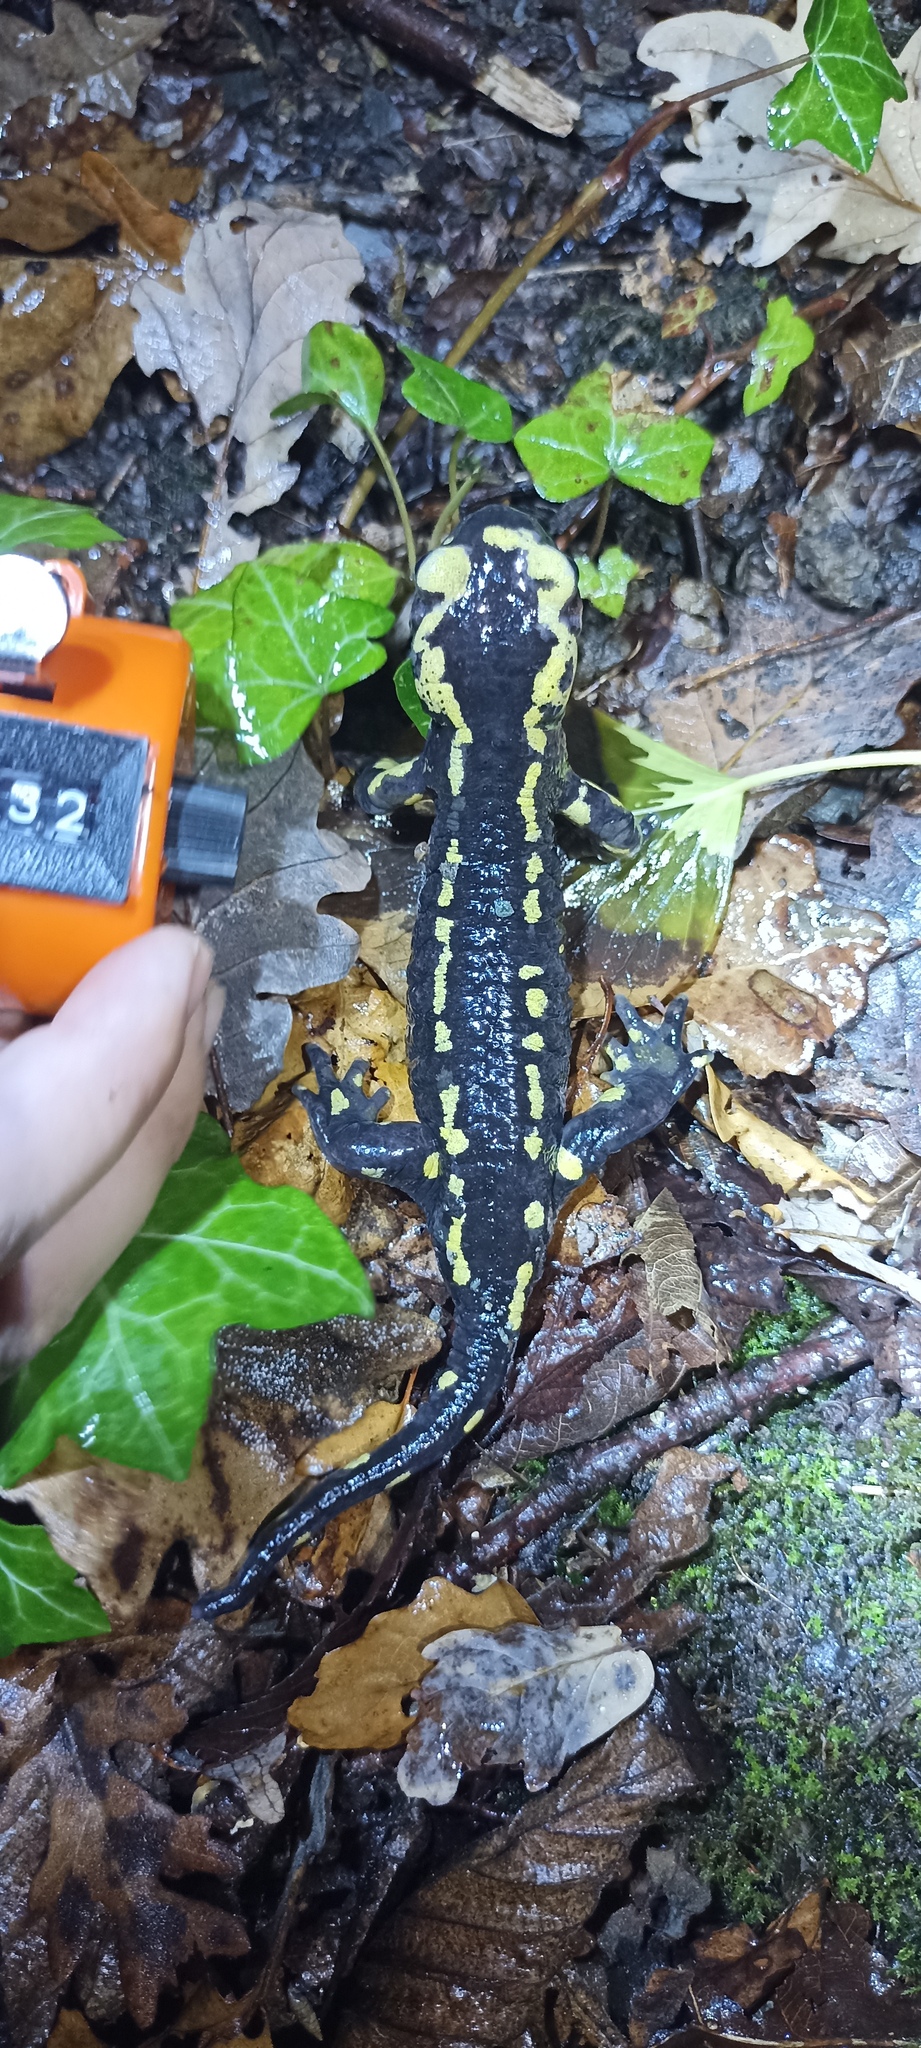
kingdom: Animalia
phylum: Chordata
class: Amphibia
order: Caudata
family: Salamandridae
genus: Salamandra
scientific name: Salamandra salamandra
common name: Fire salamander
